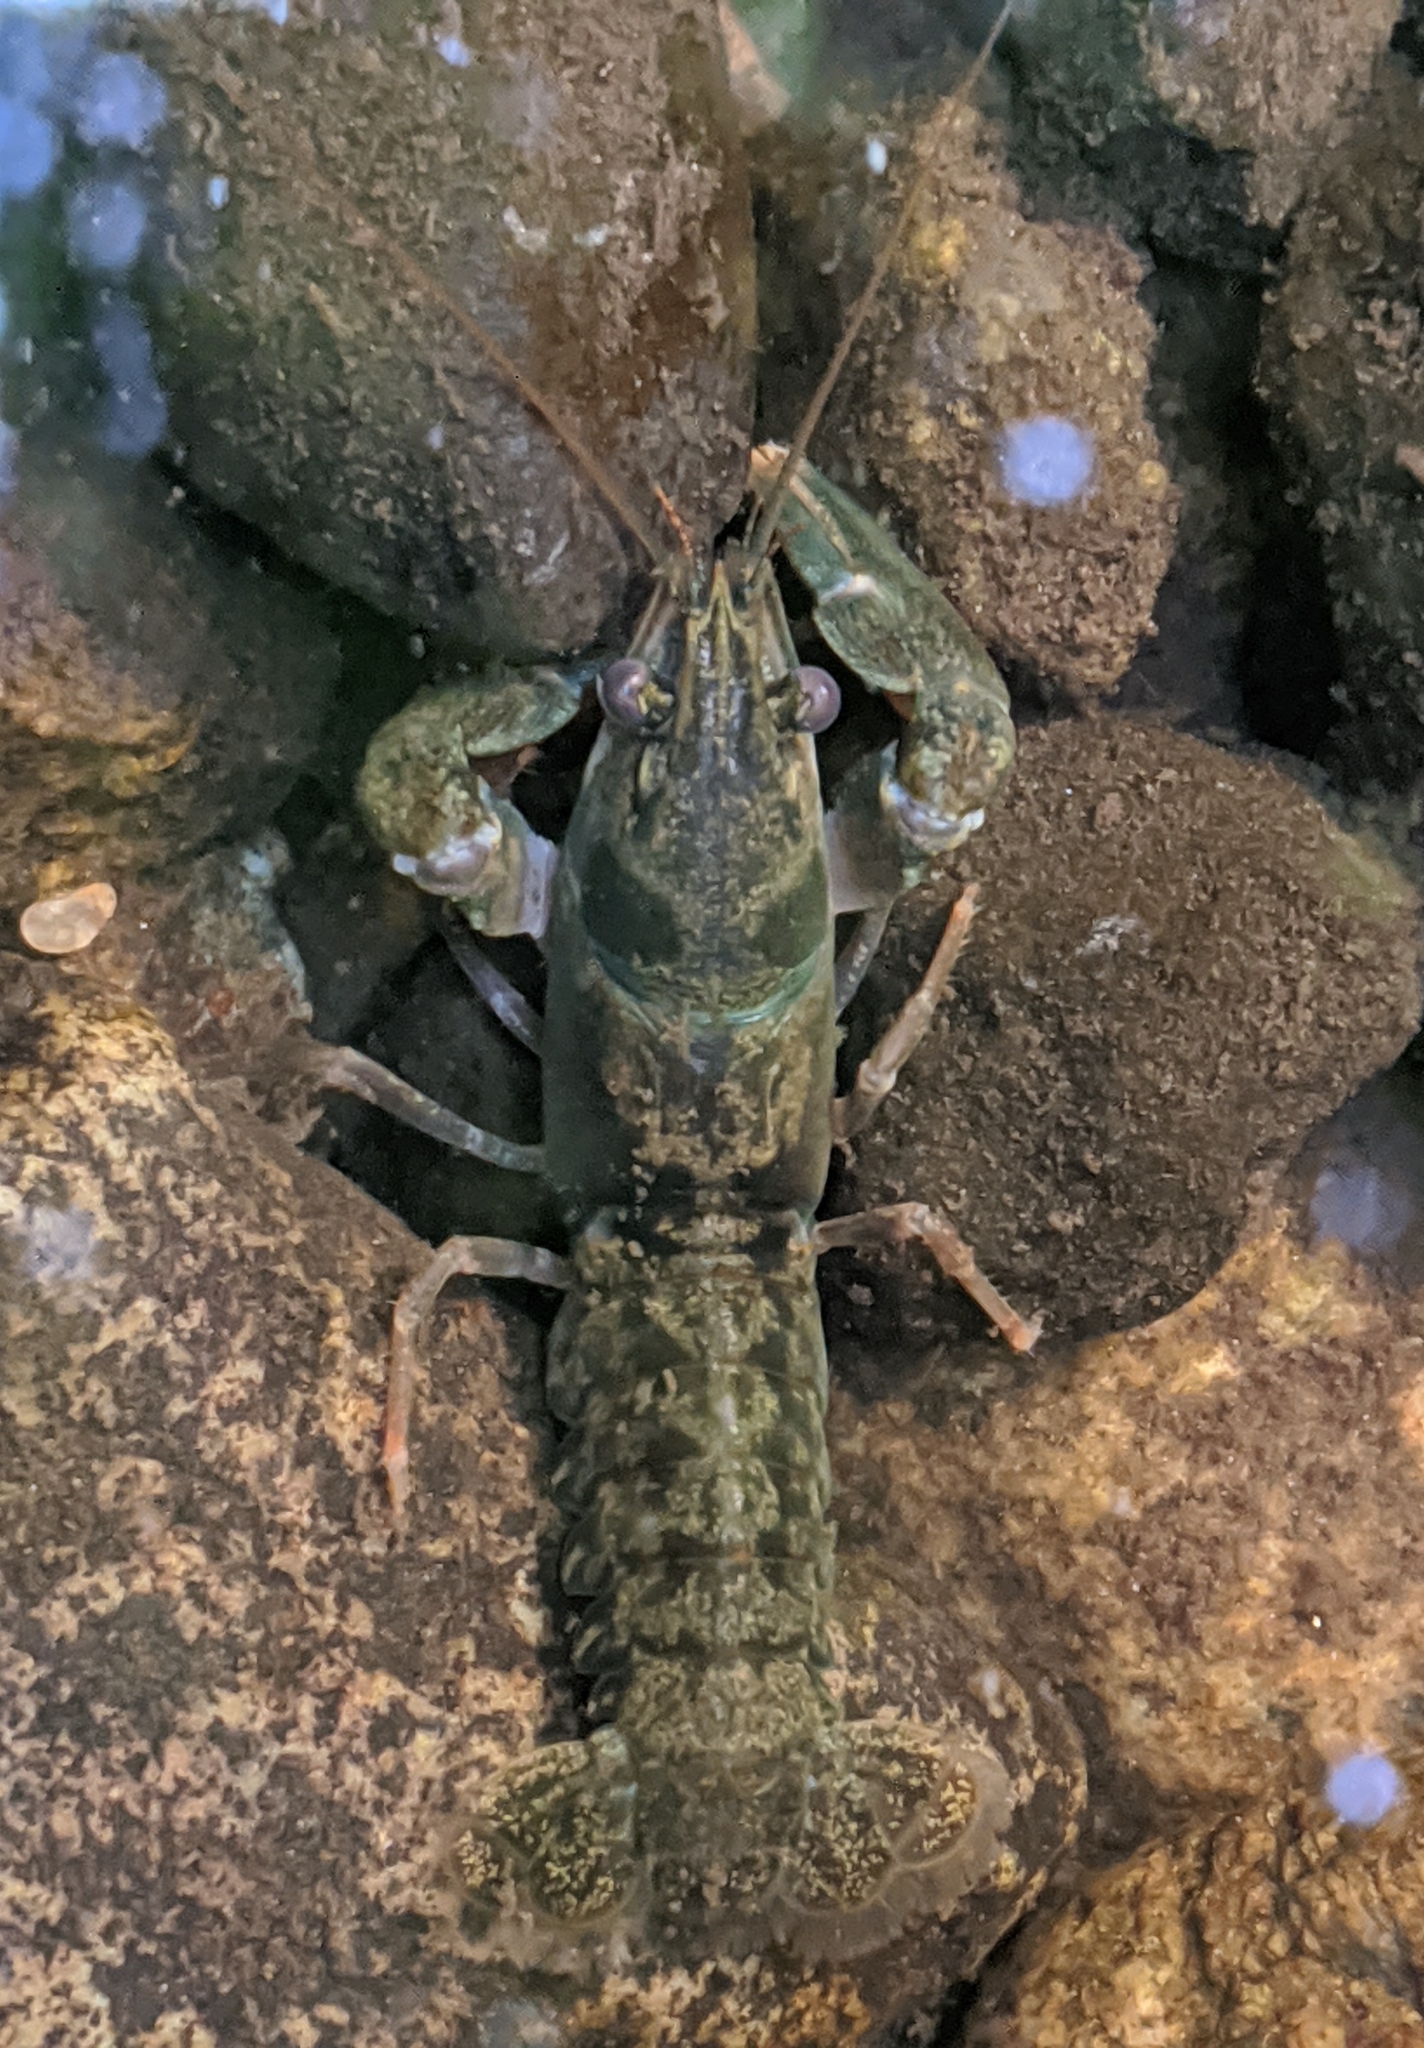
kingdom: Animalia
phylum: Arthropoda
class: Malacostraca
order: Decapoda
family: Astacidae
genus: Pacifastacus
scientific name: Pacifastacus leniusculus
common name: Signal crayfish
